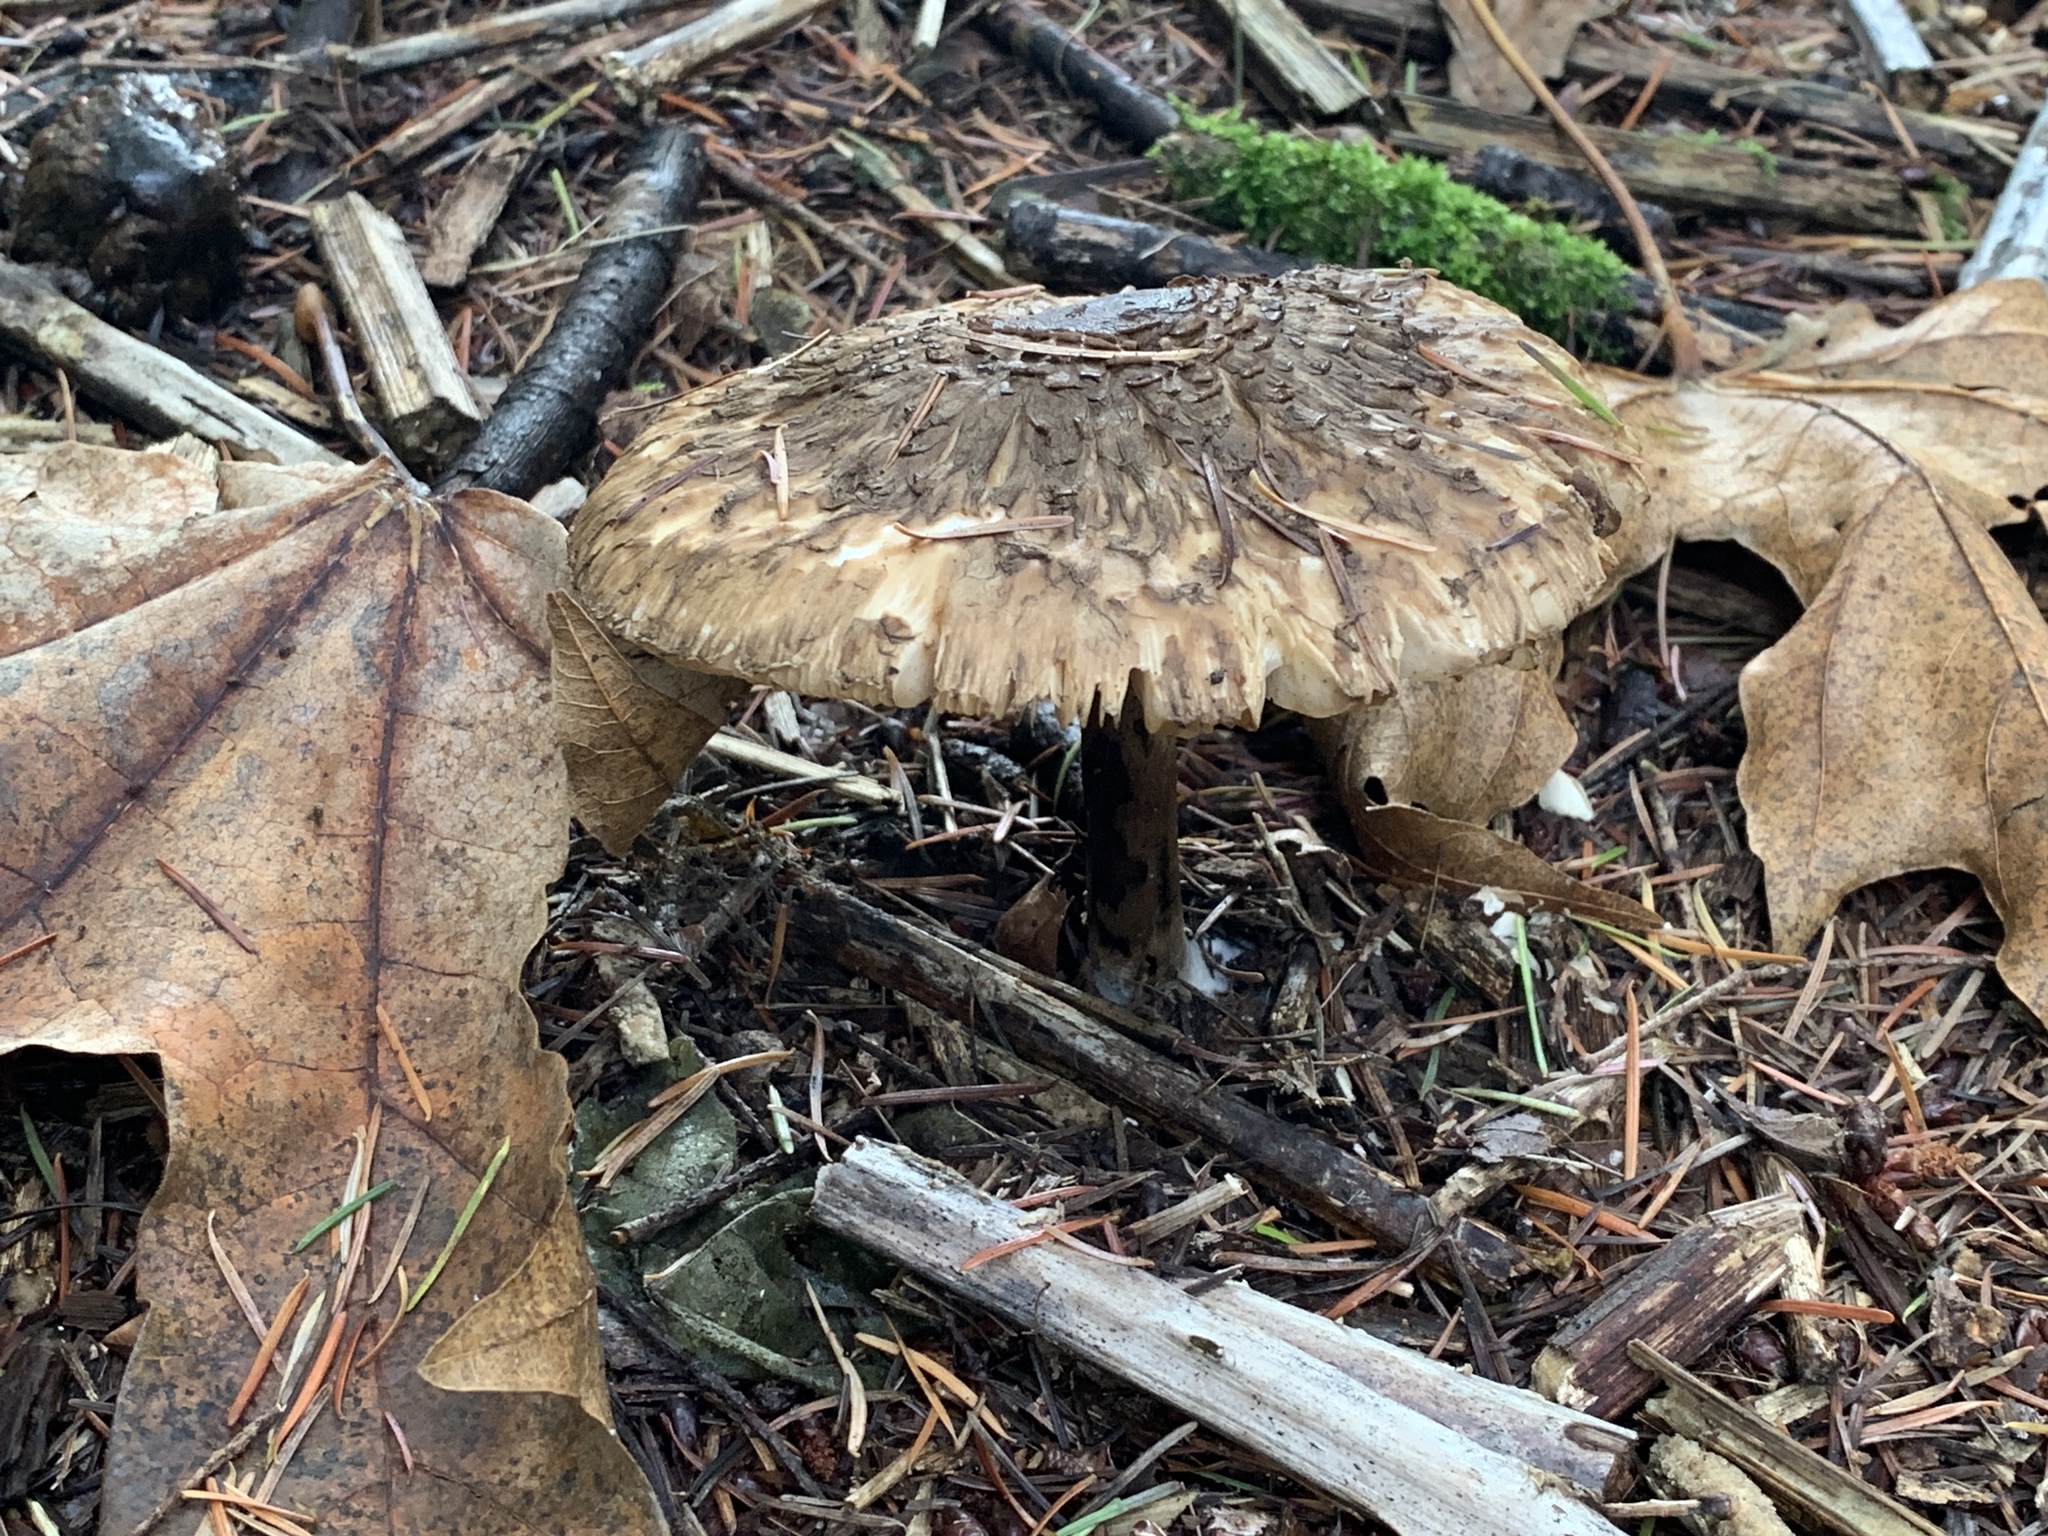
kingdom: Fungi
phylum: Basidiomycota
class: Agaricomycetes
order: Agaricales
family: Agaricaceae
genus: Chlorophyllum
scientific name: Chlorophyllum olivieri
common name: Conifer parasol
